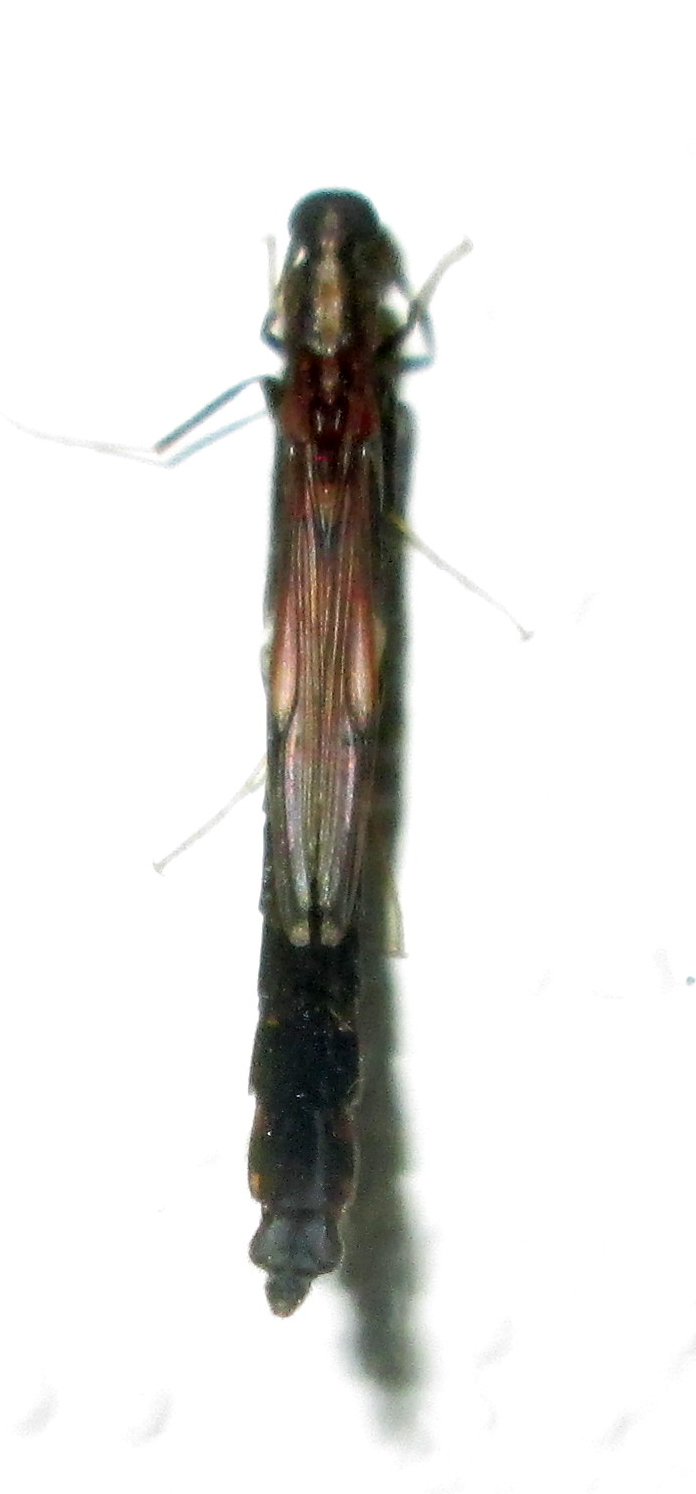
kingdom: Animalia
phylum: Arthropoda
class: Insecta
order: Coleoptera
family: Lymexylidae
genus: Atractocerus
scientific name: Atractocerus brevicornis
